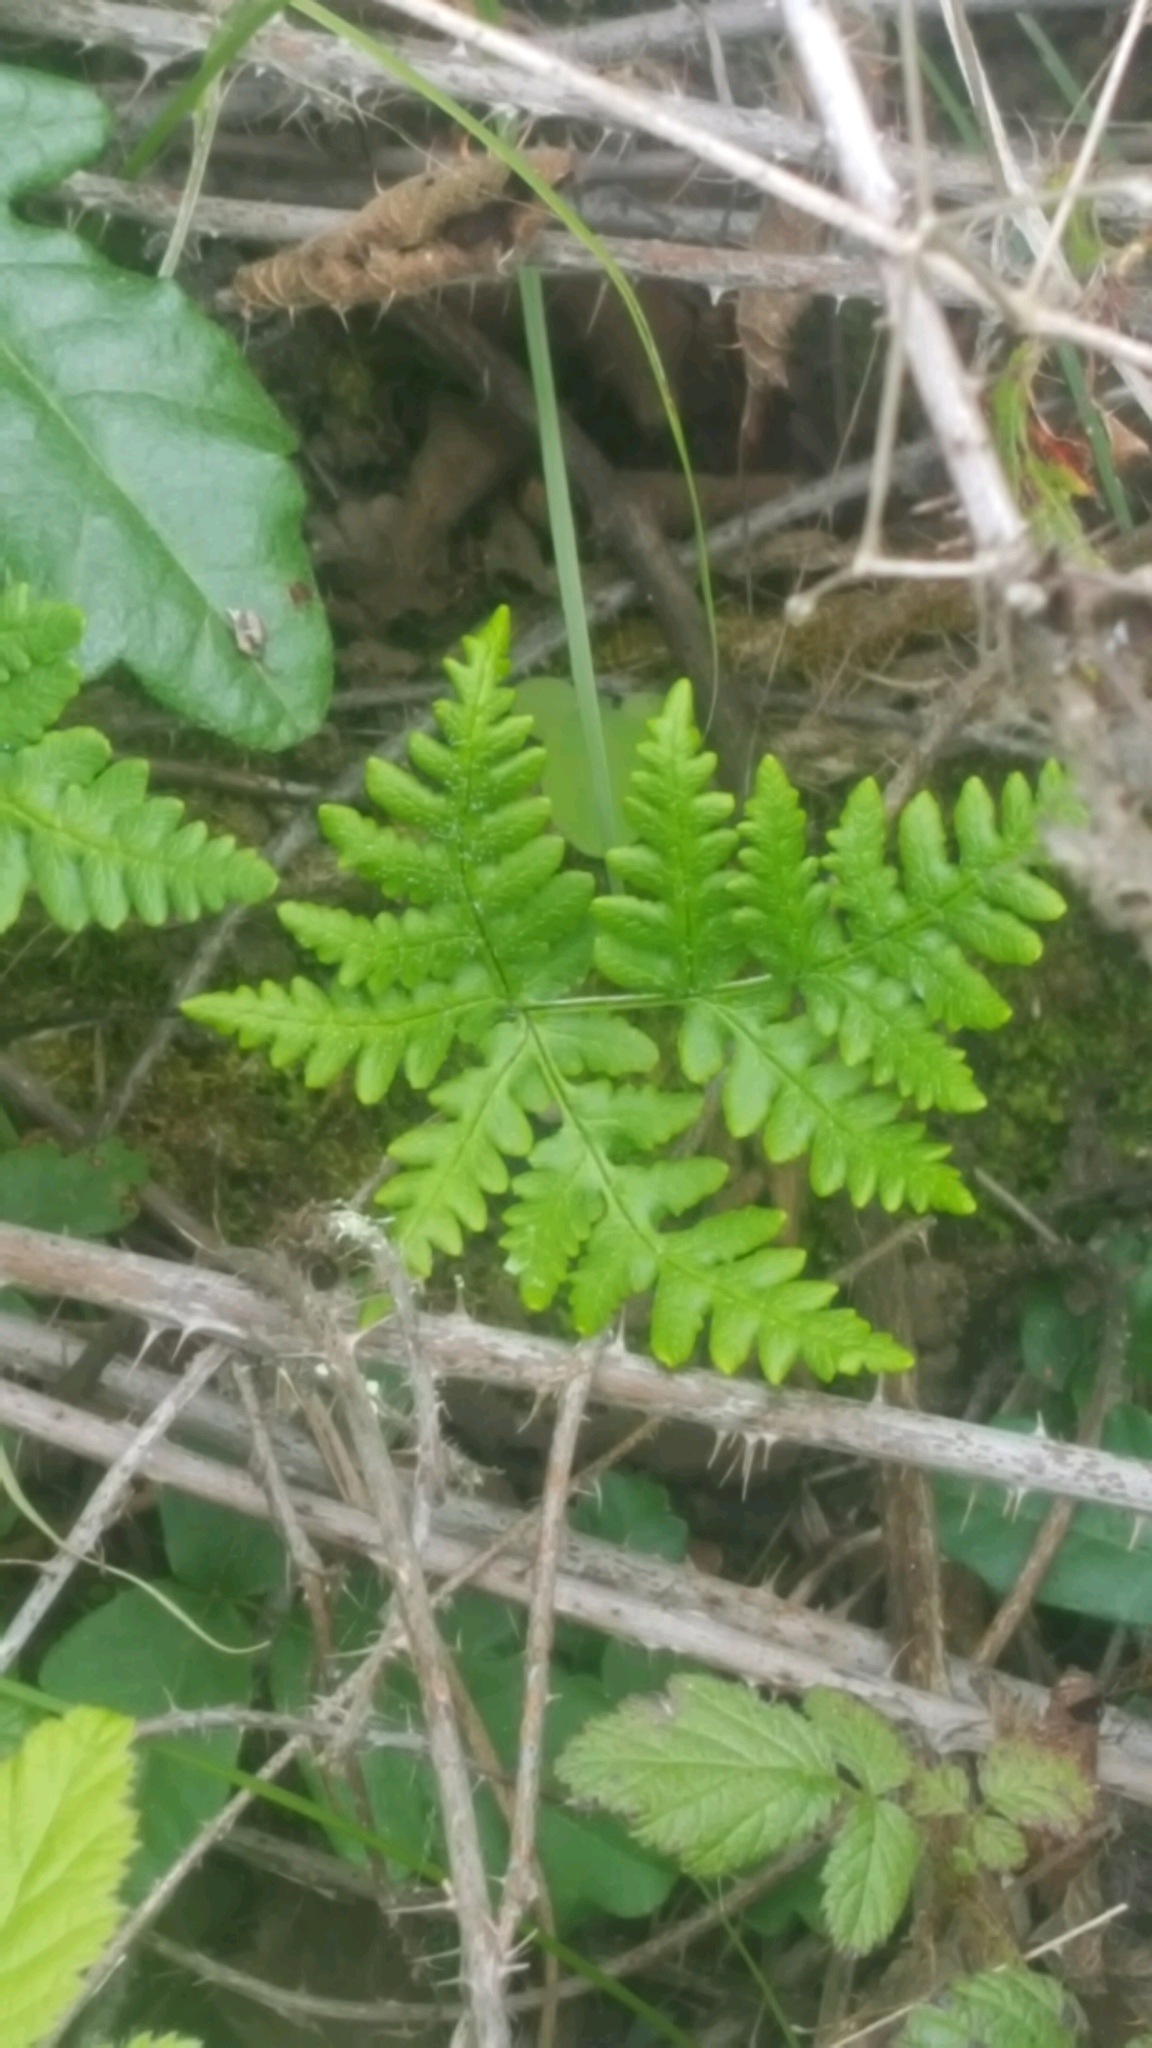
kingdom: Plantae
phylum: Tracheophyta
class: Polypodiopsida
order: Polypodiales
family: Pteridaceae
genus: Pentagramma
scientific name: Pentagramma triangularis
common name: Gold fern
